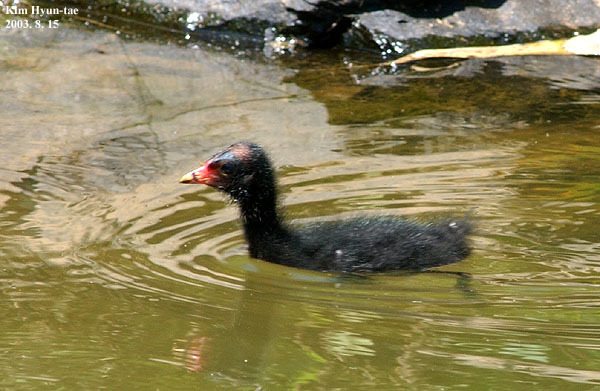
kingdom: Animalia
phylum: Chordata
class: Aves
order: Gruiformes
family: Rallidae
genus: Gallinula
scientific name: Gallinula chloropus
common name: Common moorhen
